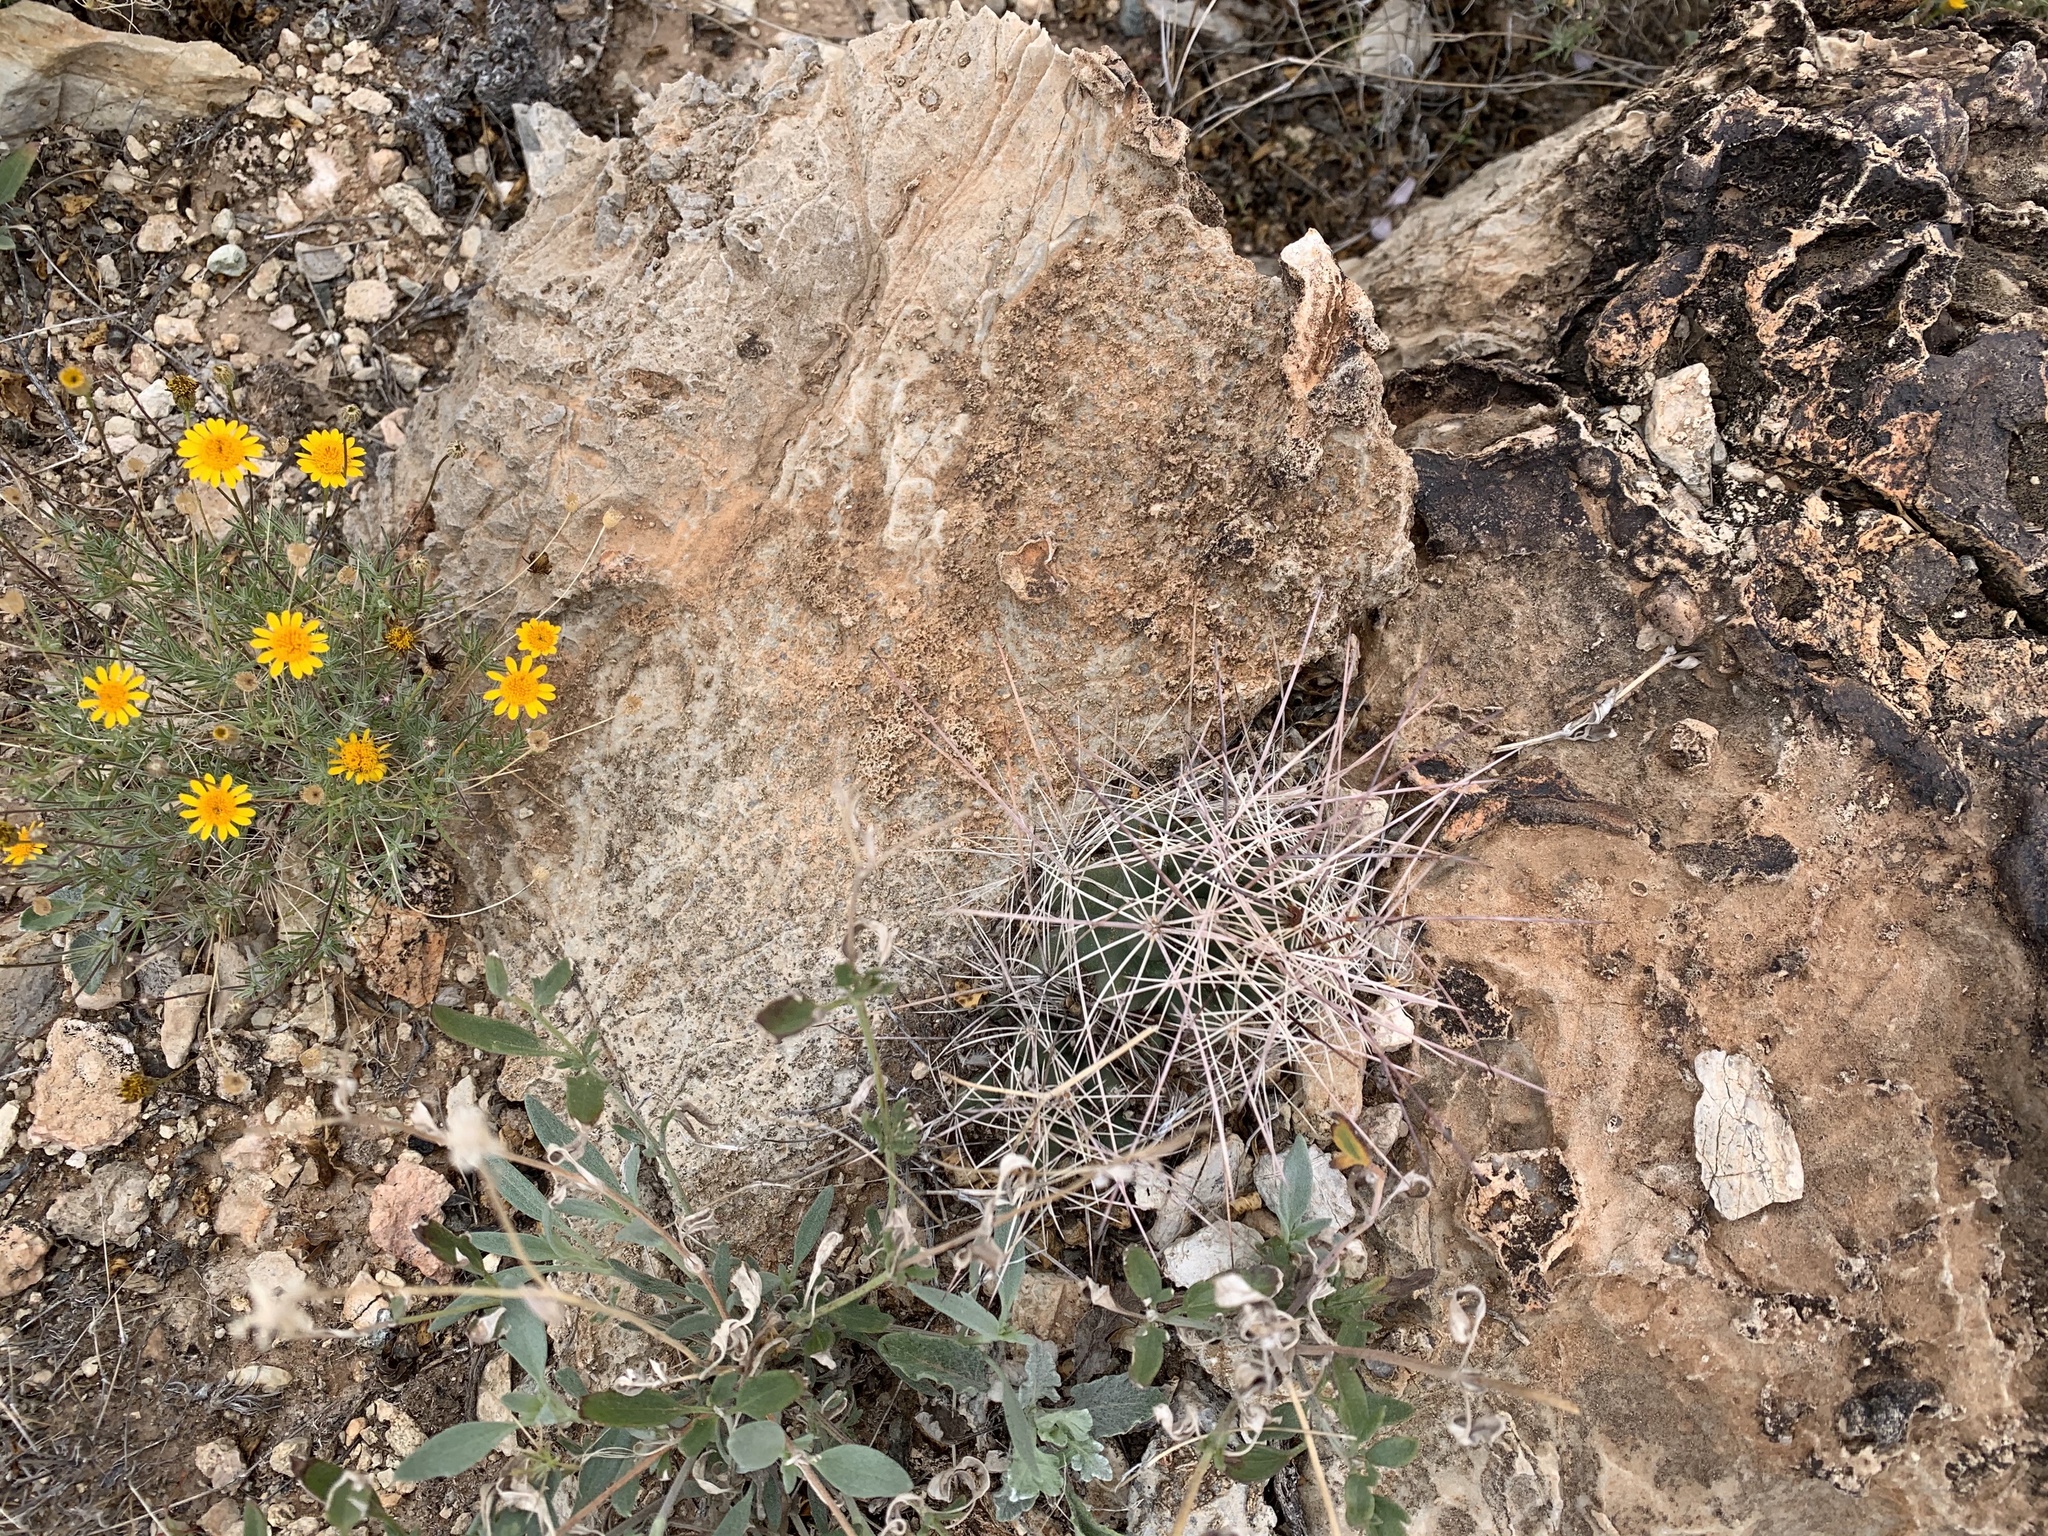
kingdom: Plantae
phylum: Tracheophyta
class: Magnoliopsida
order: Caryophyllales
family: Cactaceae
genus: Coryphantha
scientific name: Coryphantha macromeris
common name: Nipple beehive cactus
